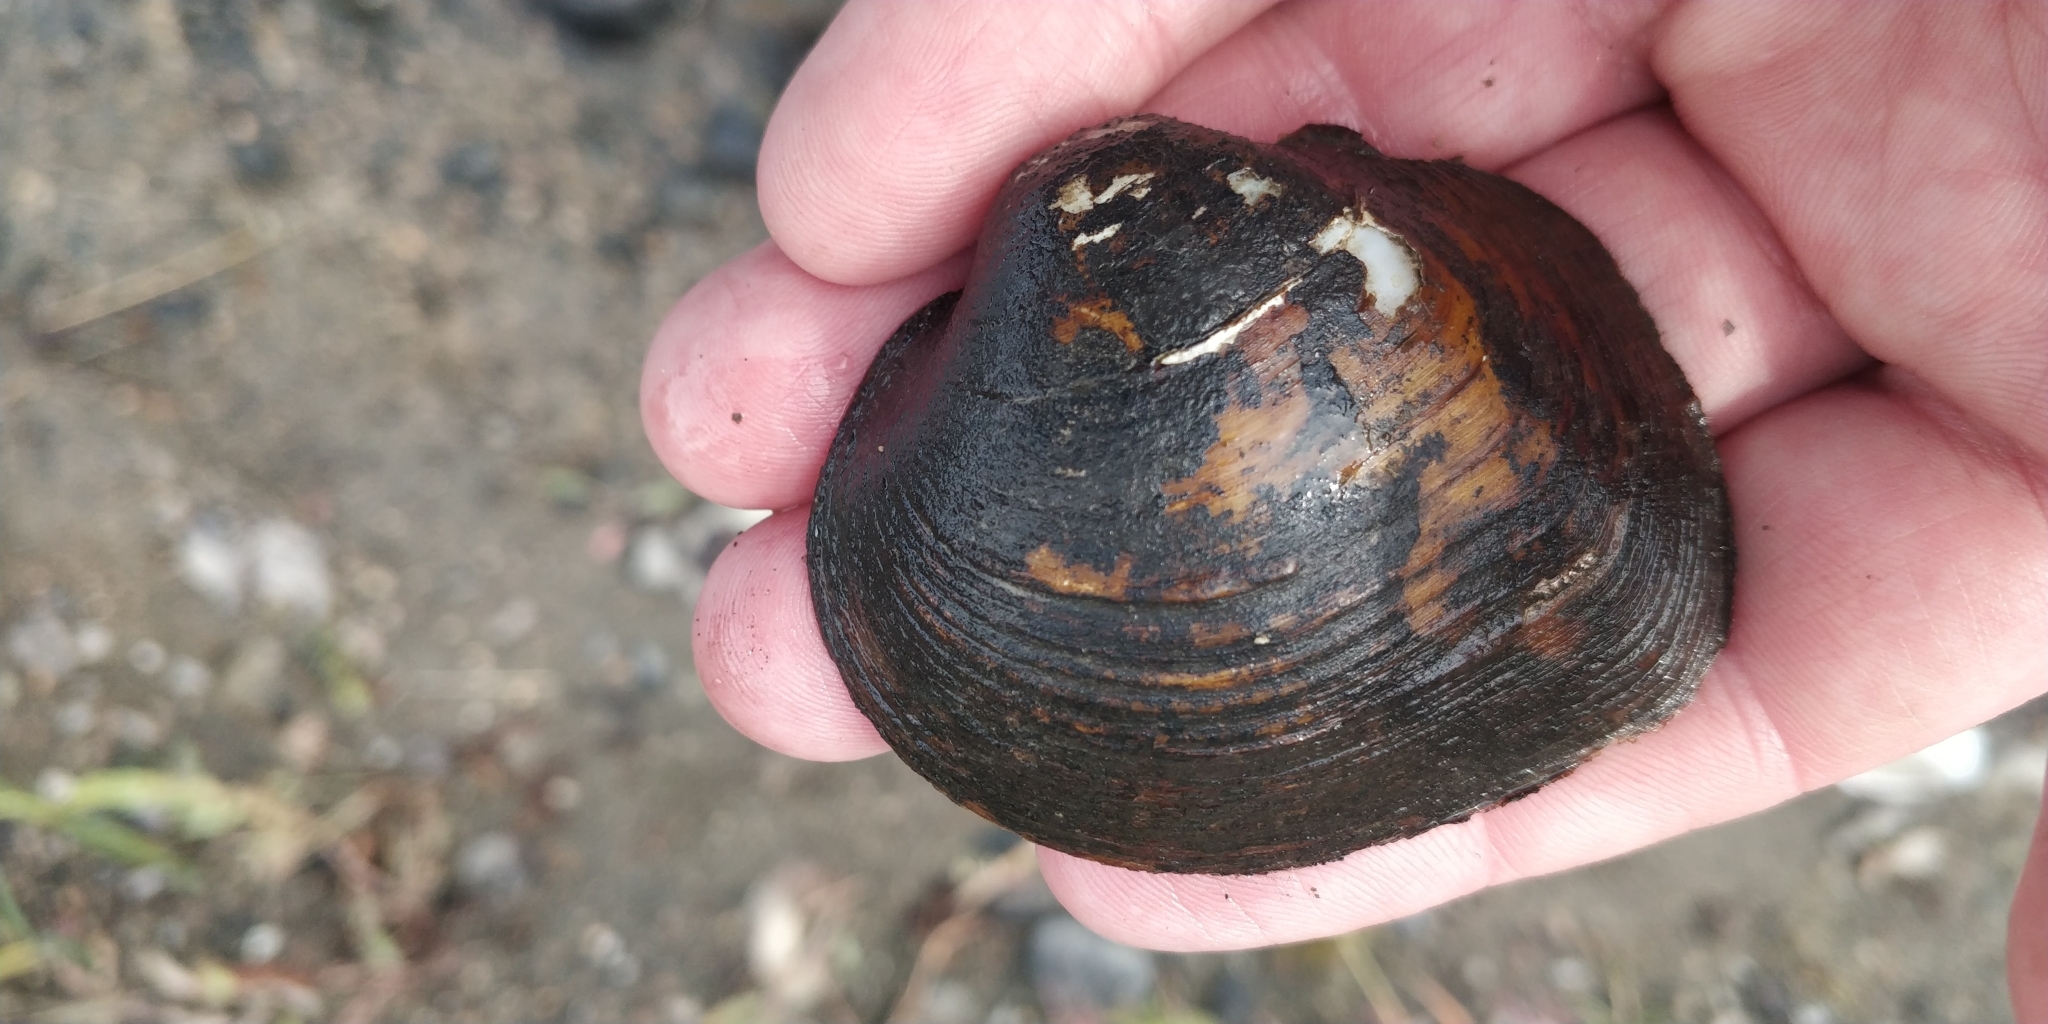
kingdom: Animalia
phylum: Mollusca
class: Bivalvia
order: Unionida
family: Unionidae
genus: Cyclonaias
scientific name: Cyclonaias pustulosa
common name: Pimpleback
